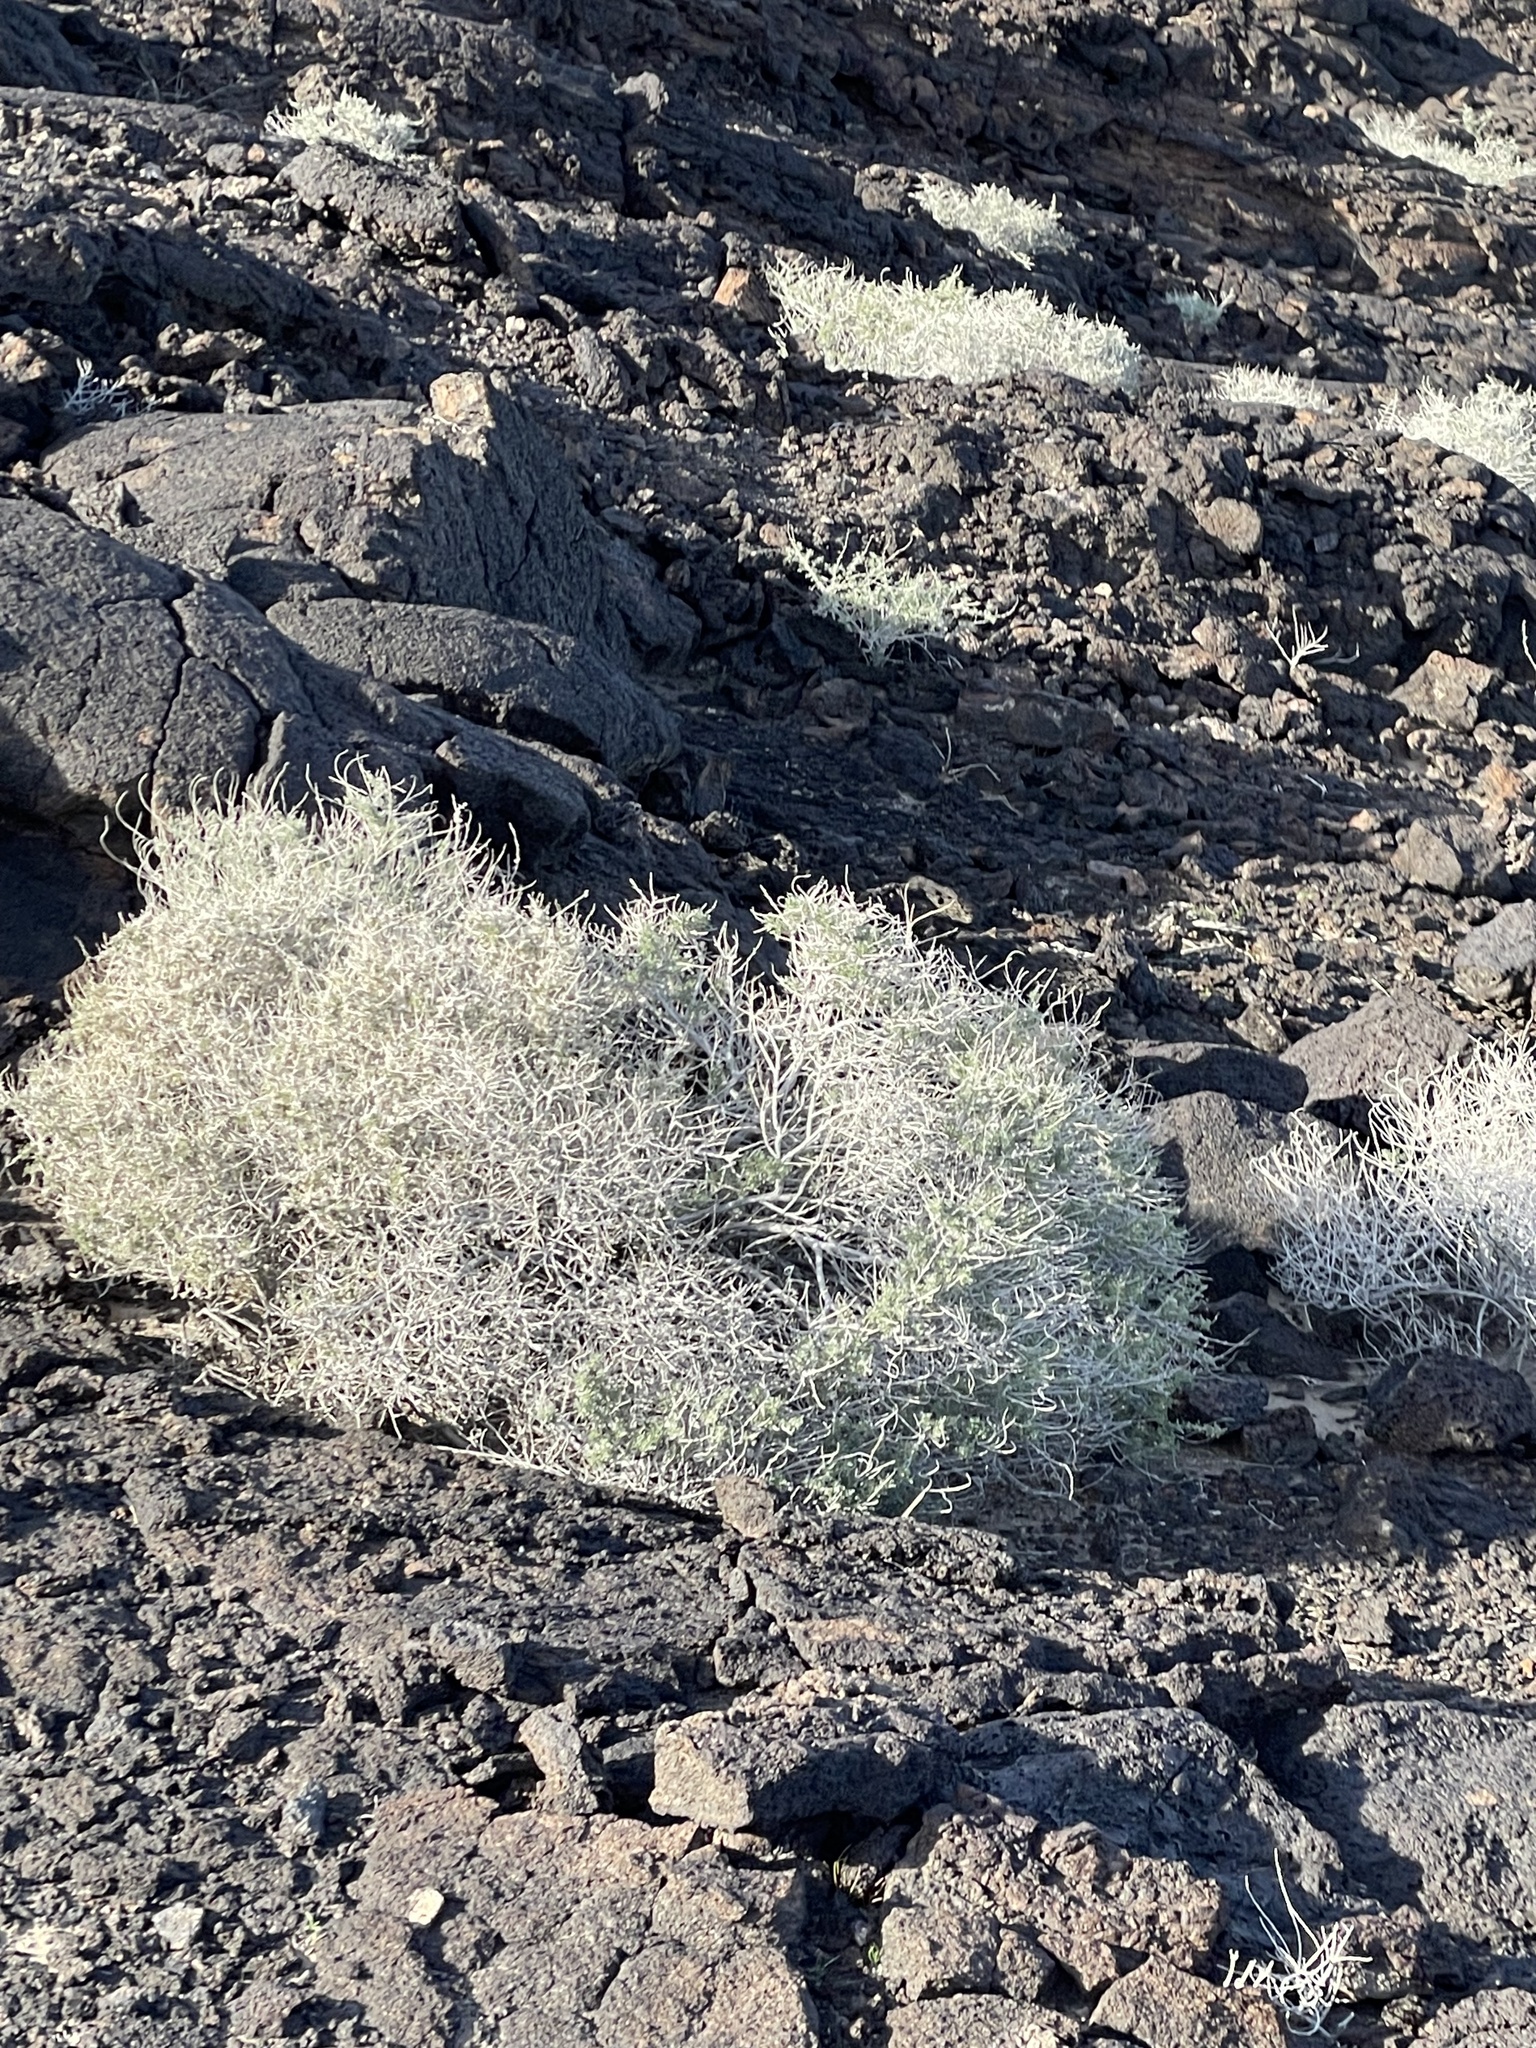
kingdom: Plantae
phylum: Tracheophyta
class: Magnoliopsida
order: Asterales
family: Asteraceae
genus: Ambrosia
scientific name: Ambrosia dumosa
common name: Bur-sage
